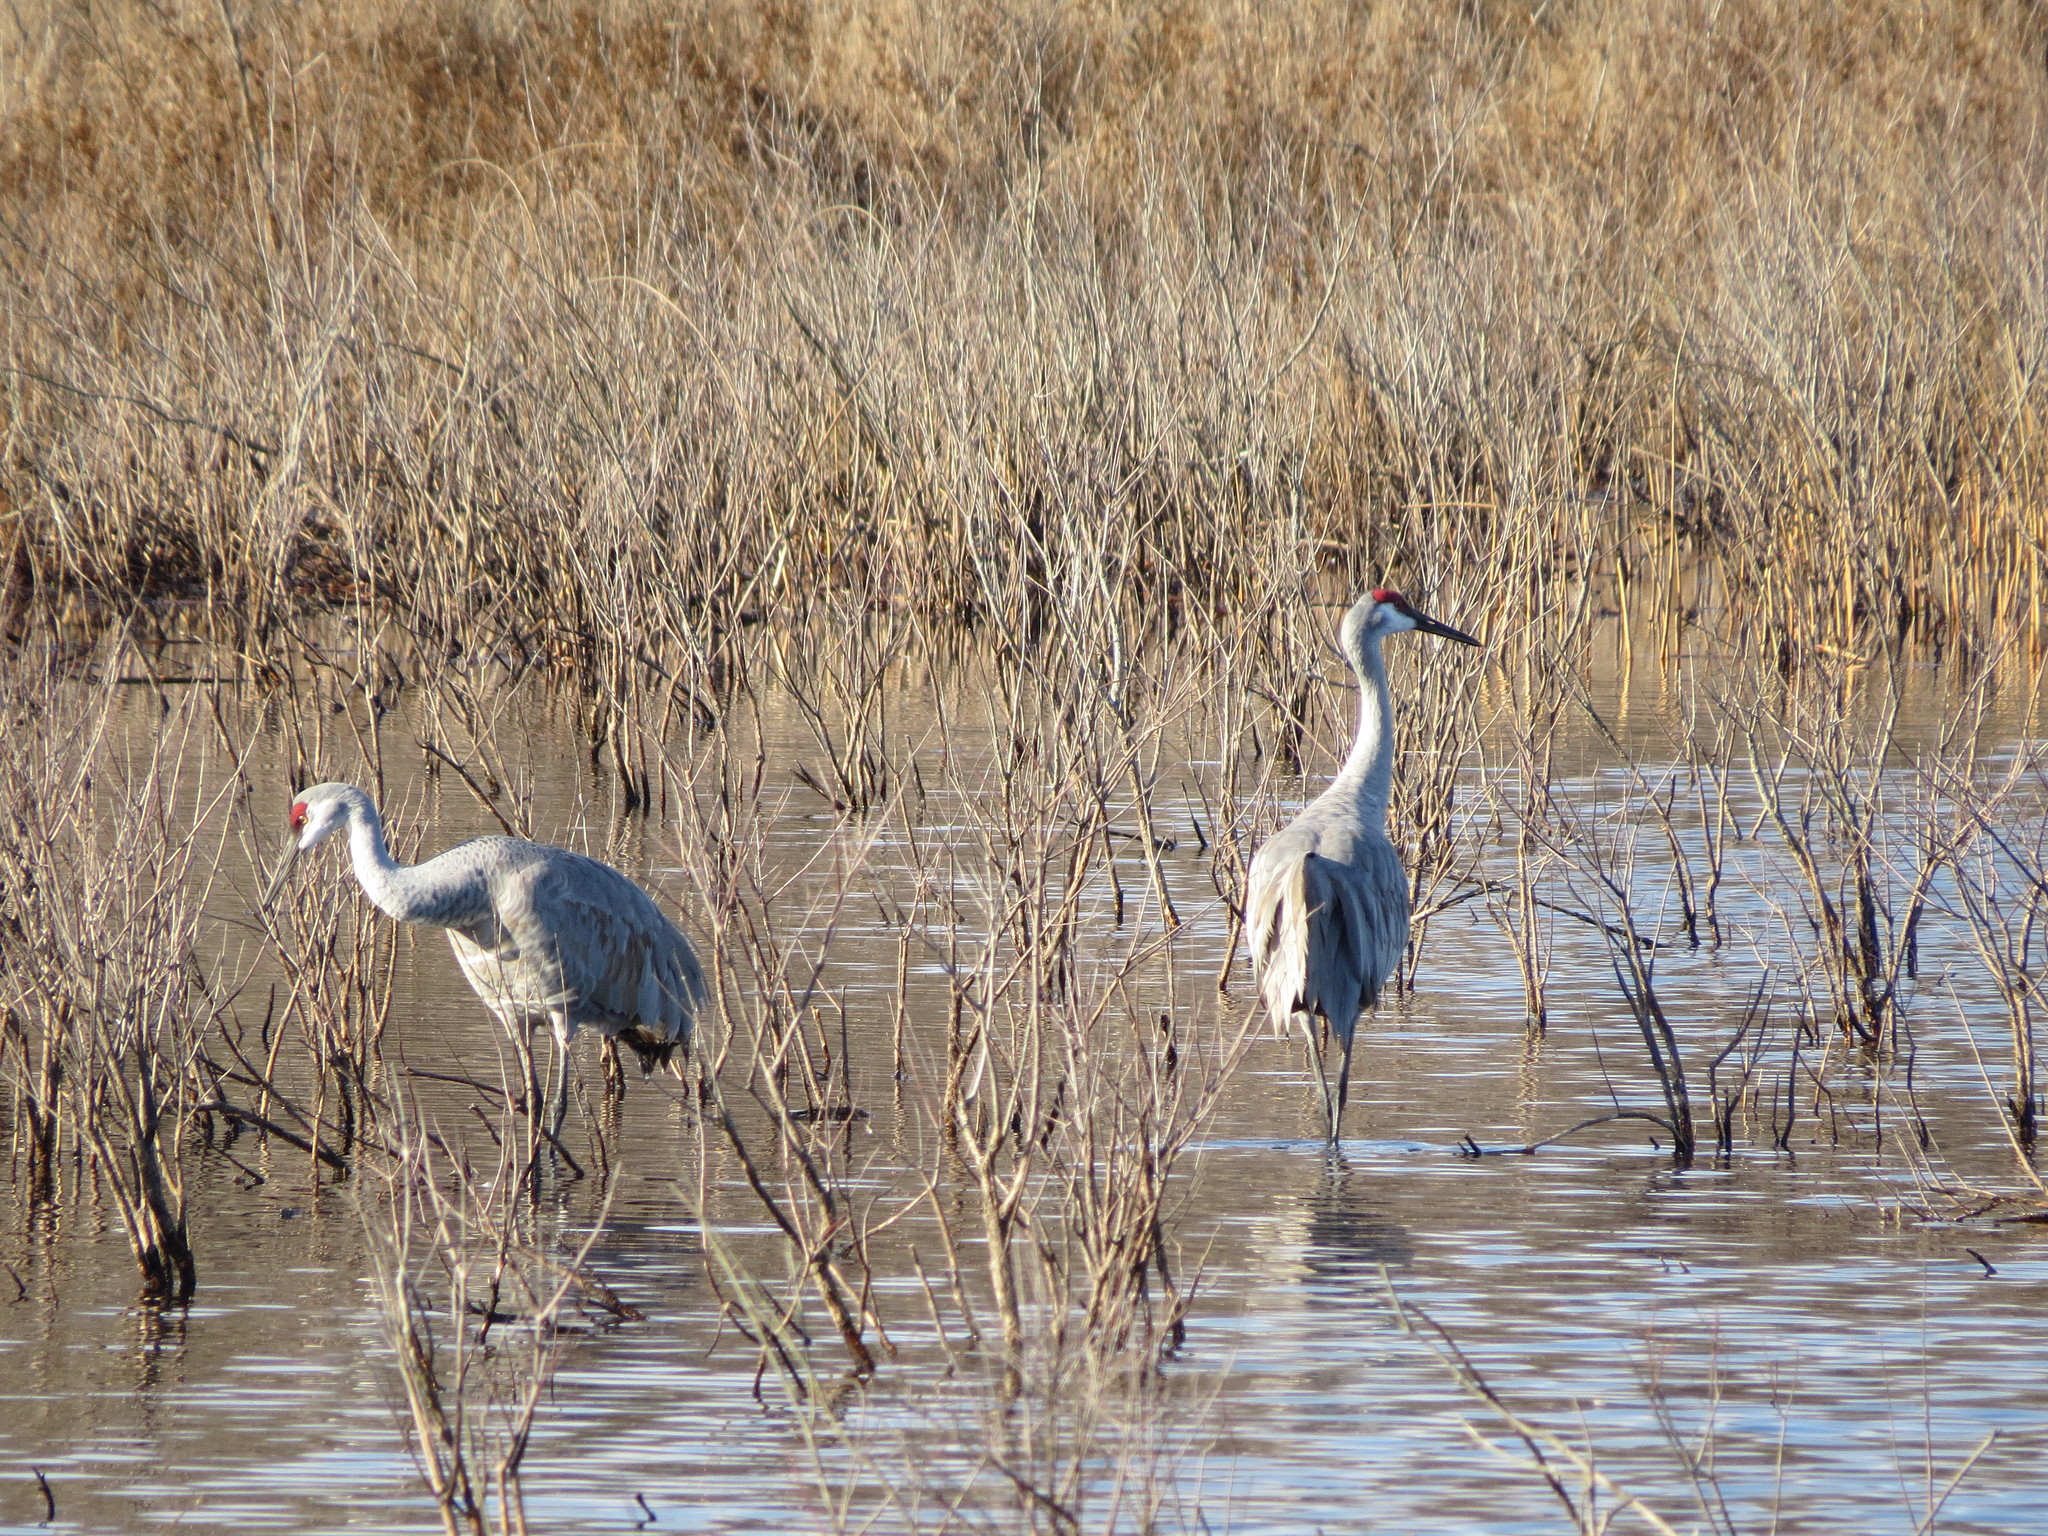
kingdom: Animalia
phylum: Chordata
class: Aves
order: Gruiformes
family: Gruidae
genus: Grus
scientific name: Grus canadensis
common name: Sandhill crane
